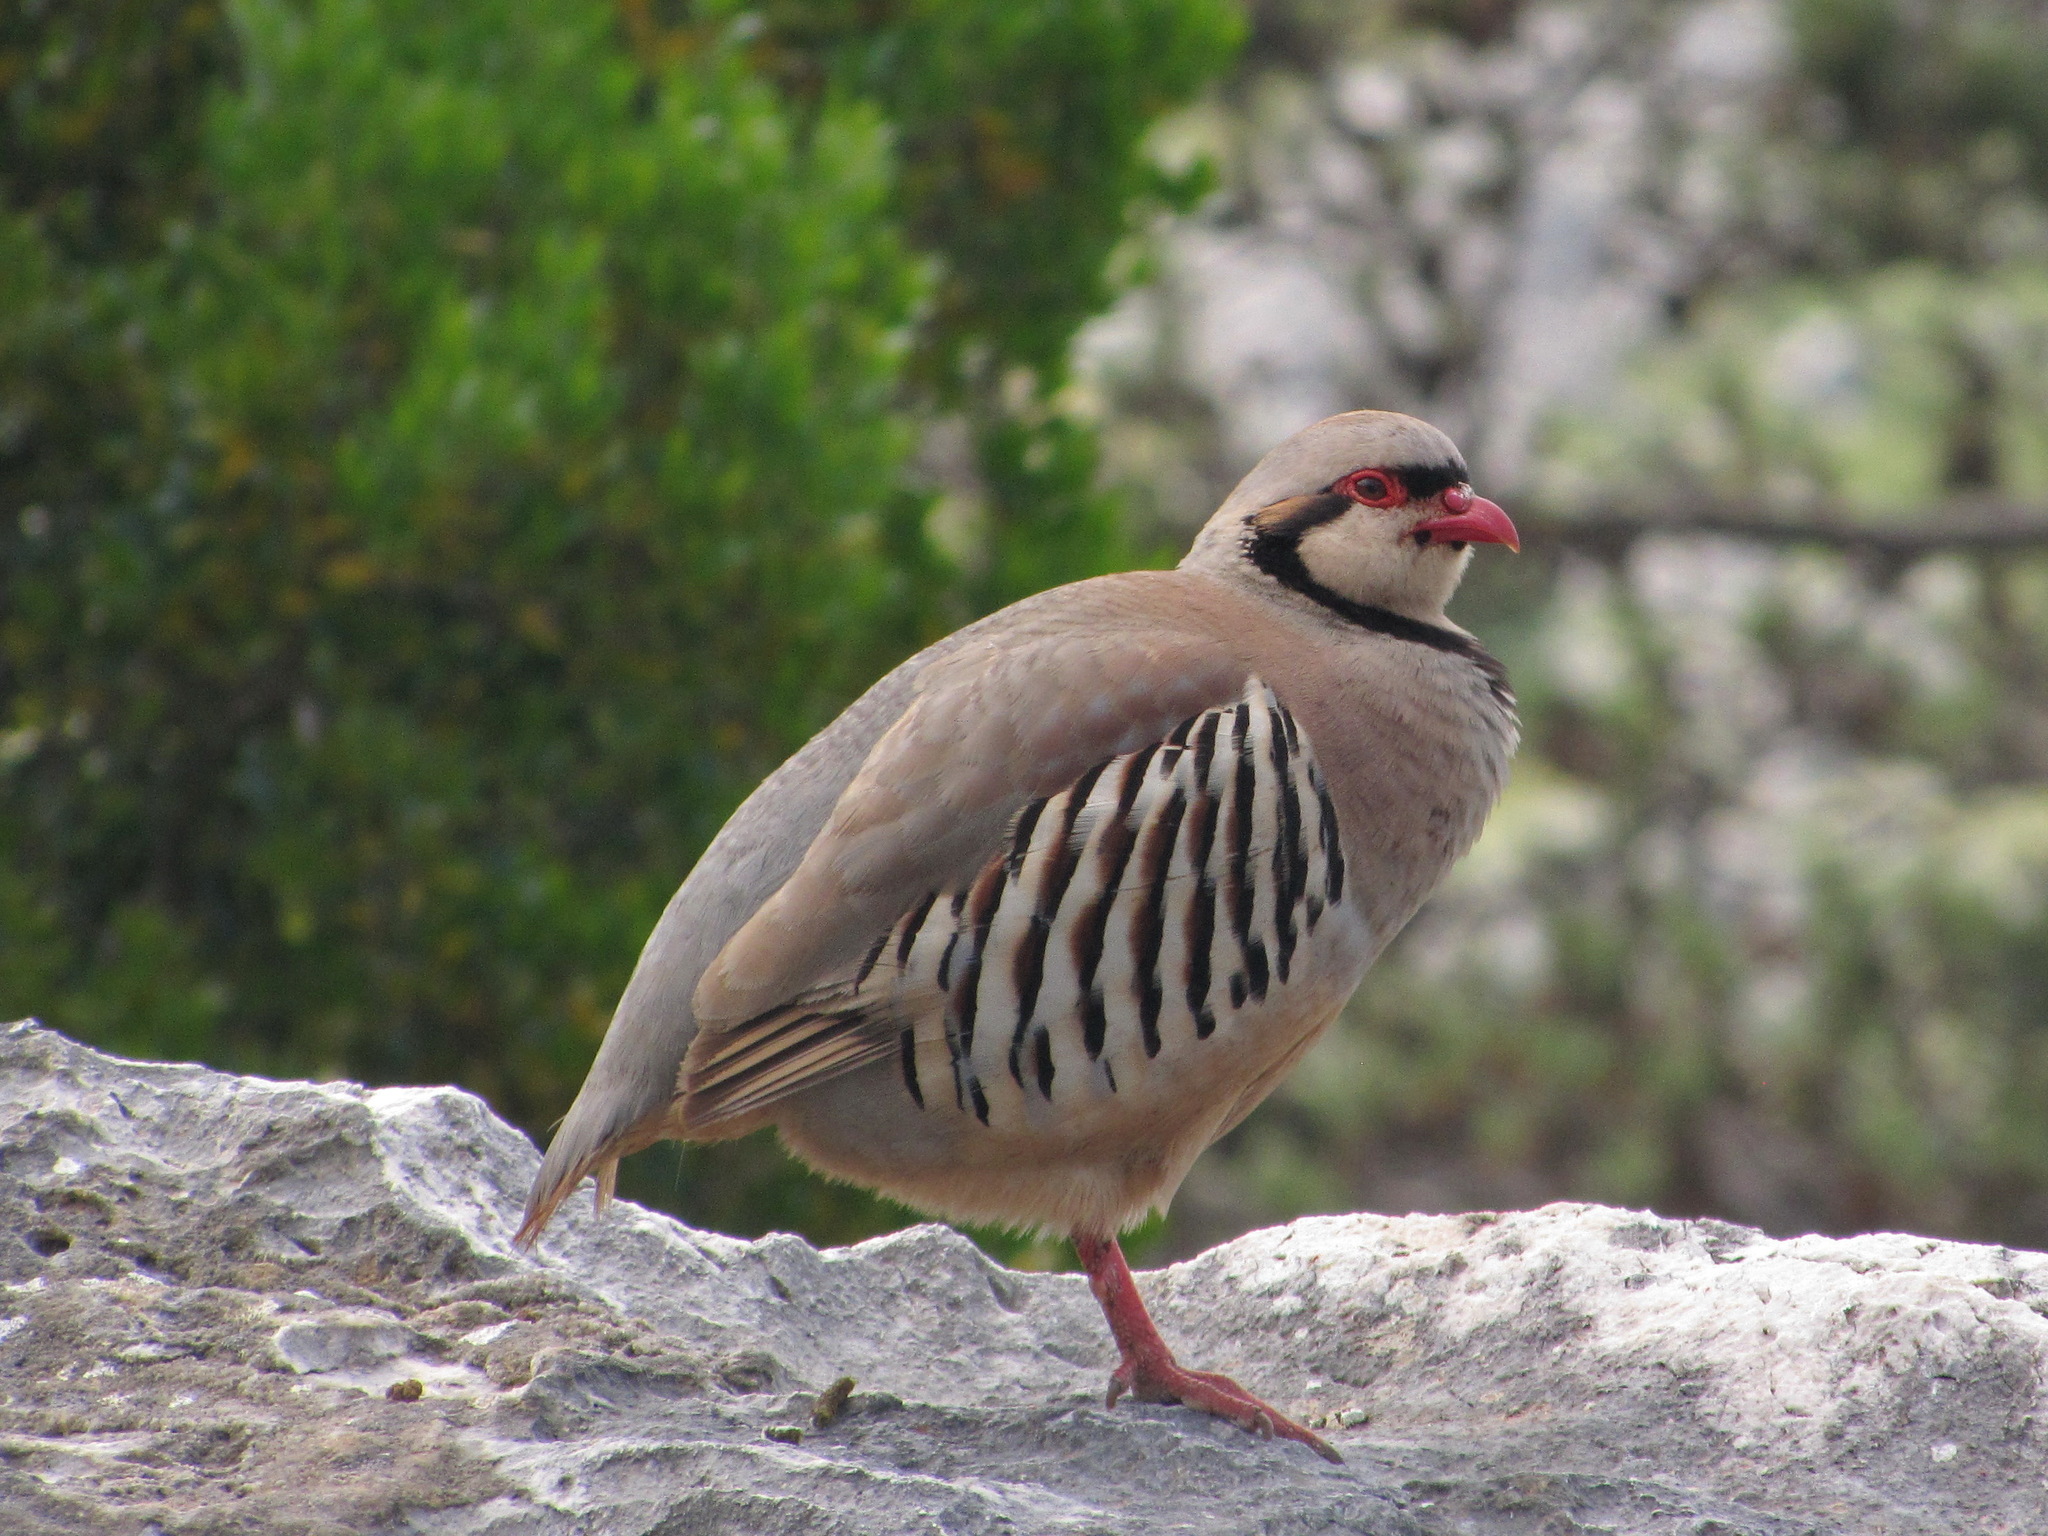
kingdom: Animalia
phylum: Chordata
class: Aves
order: Galliformes
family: Phasianidae
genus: Alectoris
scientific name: Alectoris chukar
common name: Chukar
